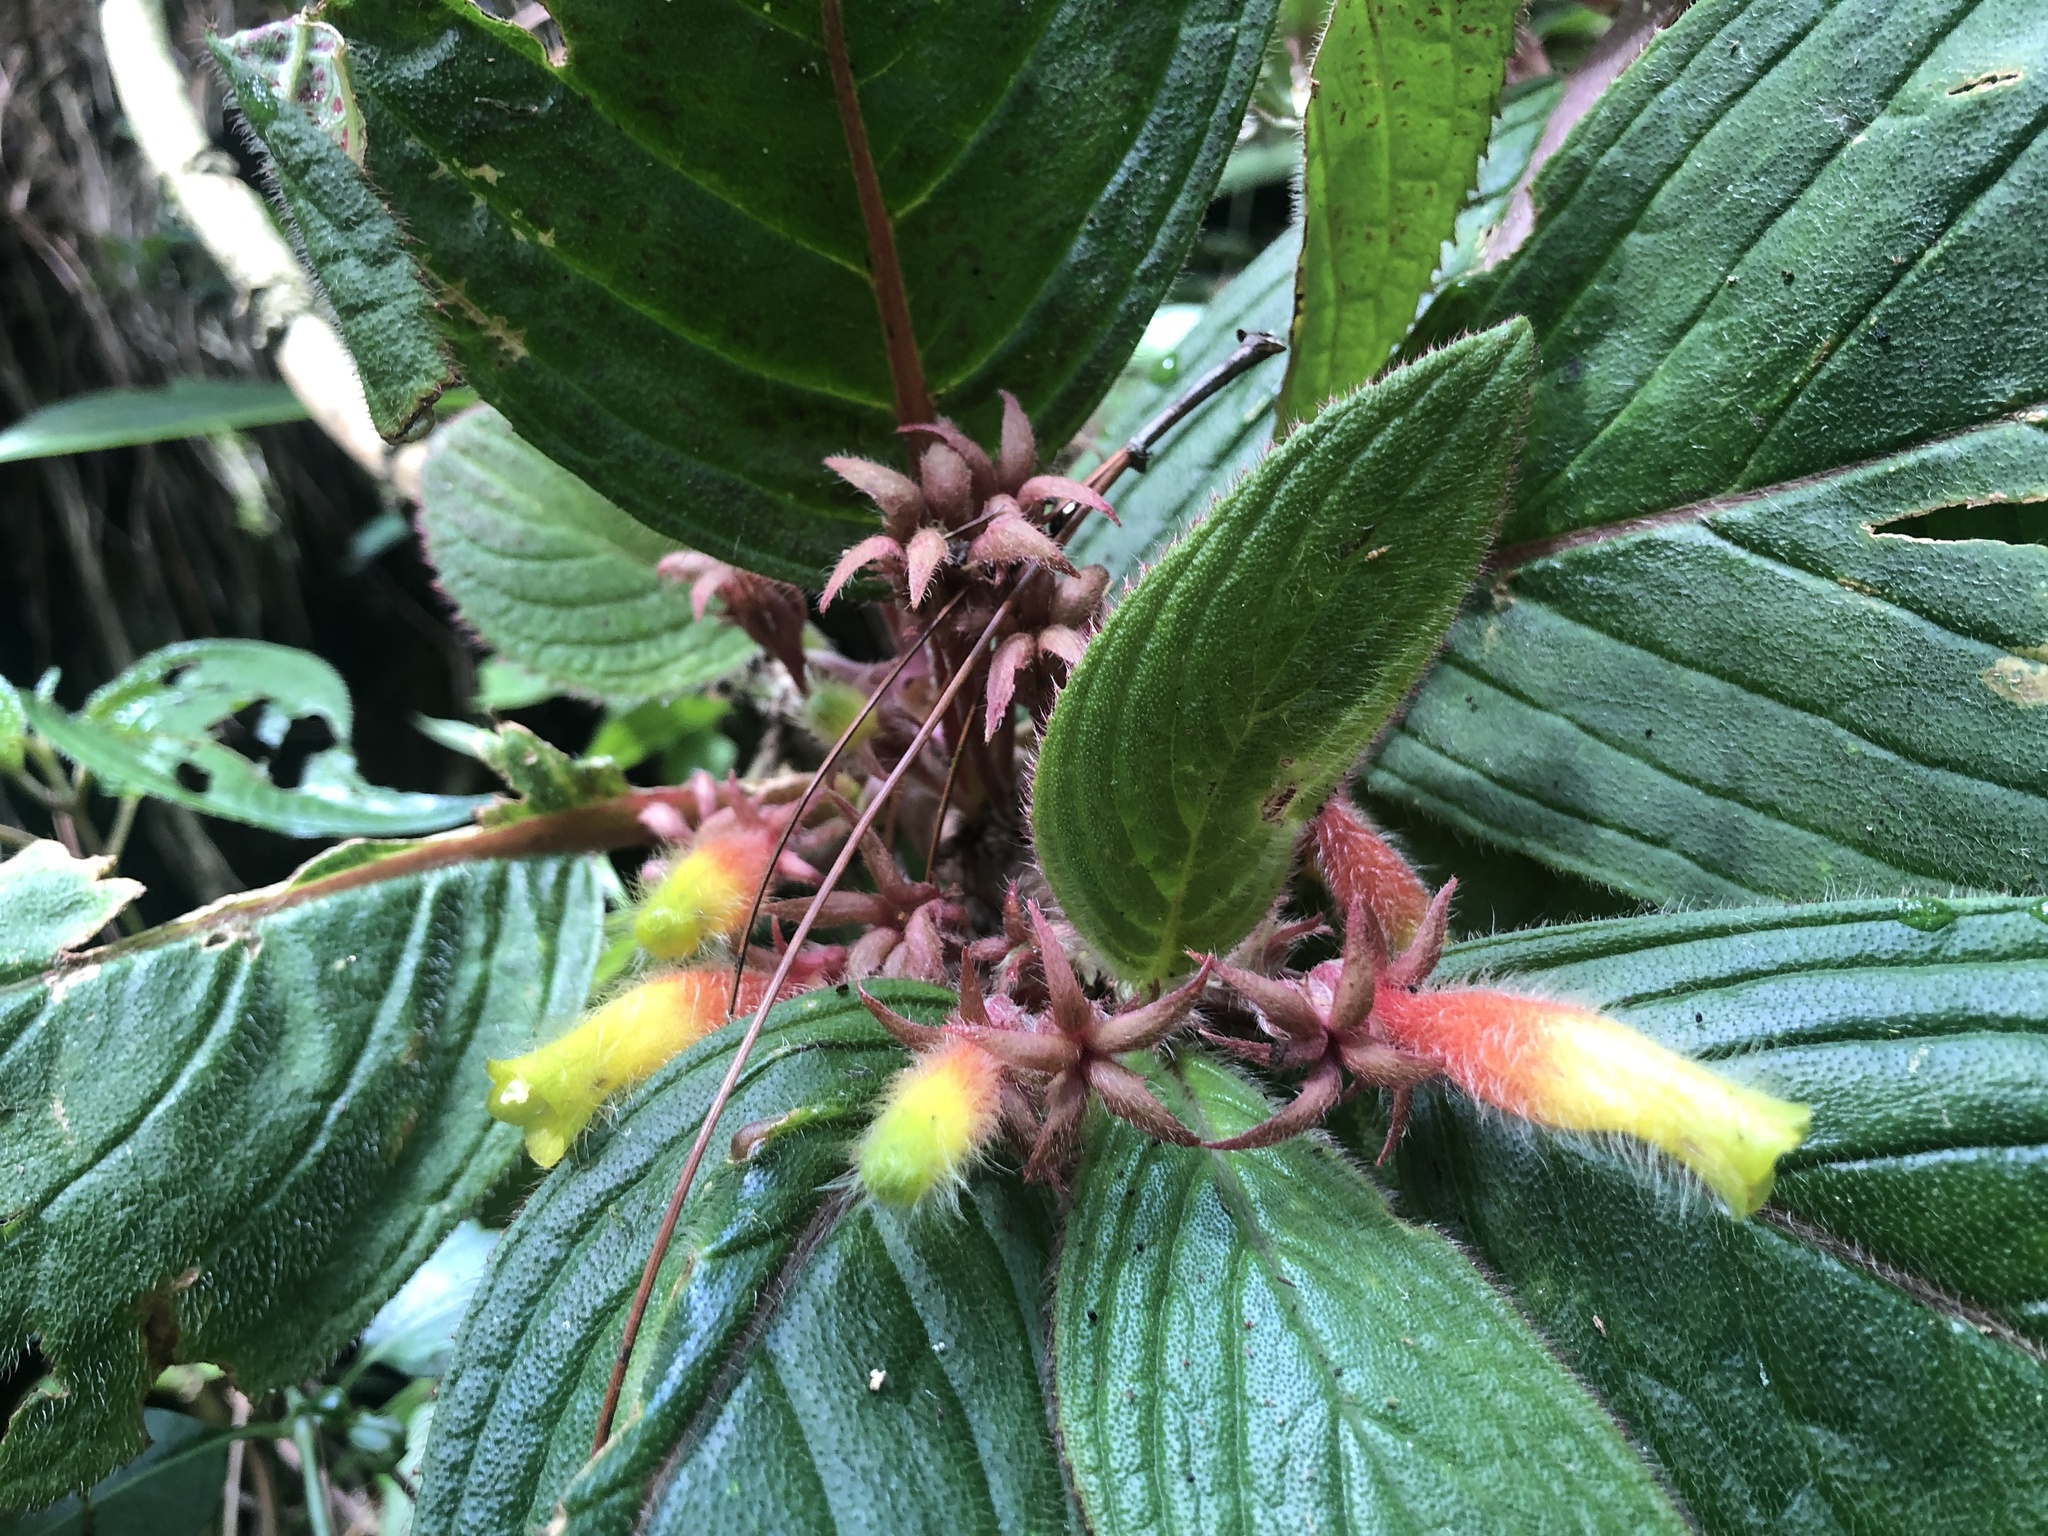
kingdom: Plantae
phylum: Tracheophyta
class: Magnoliopsida
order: Lamiales
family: Gesneriaceae
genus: Columnea
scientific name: Columnea nervosa
